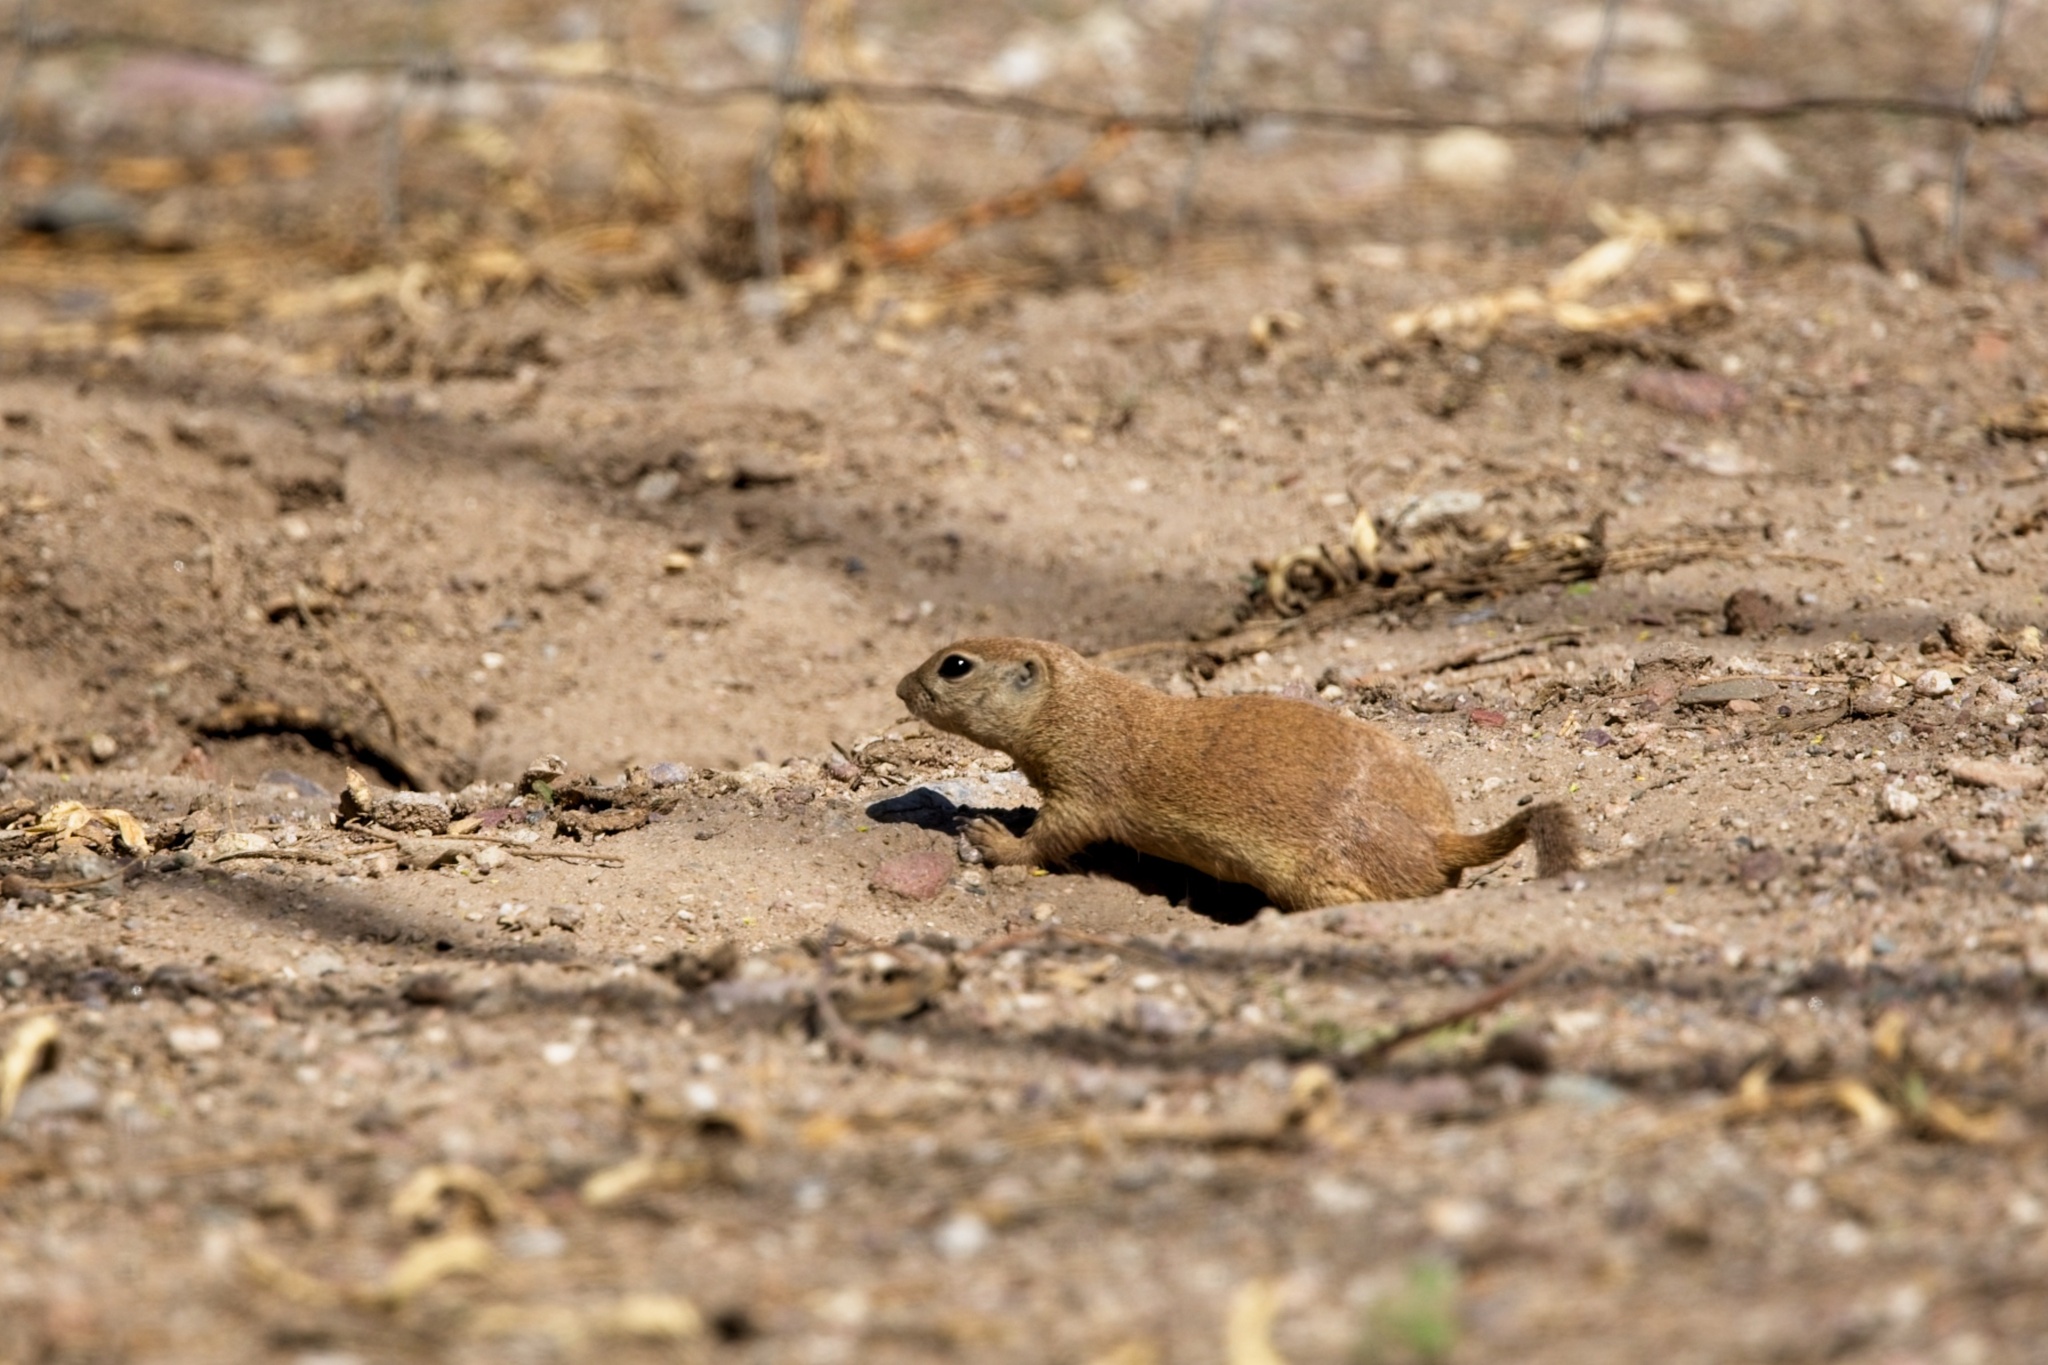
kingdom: Animalia
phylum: Chordata
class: Mammalia
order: Rodentia
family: Sciuridae
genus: Xerospermophilus
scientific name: Xerospermophilus tereticaudus
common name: Round-tailed ground squirrel
